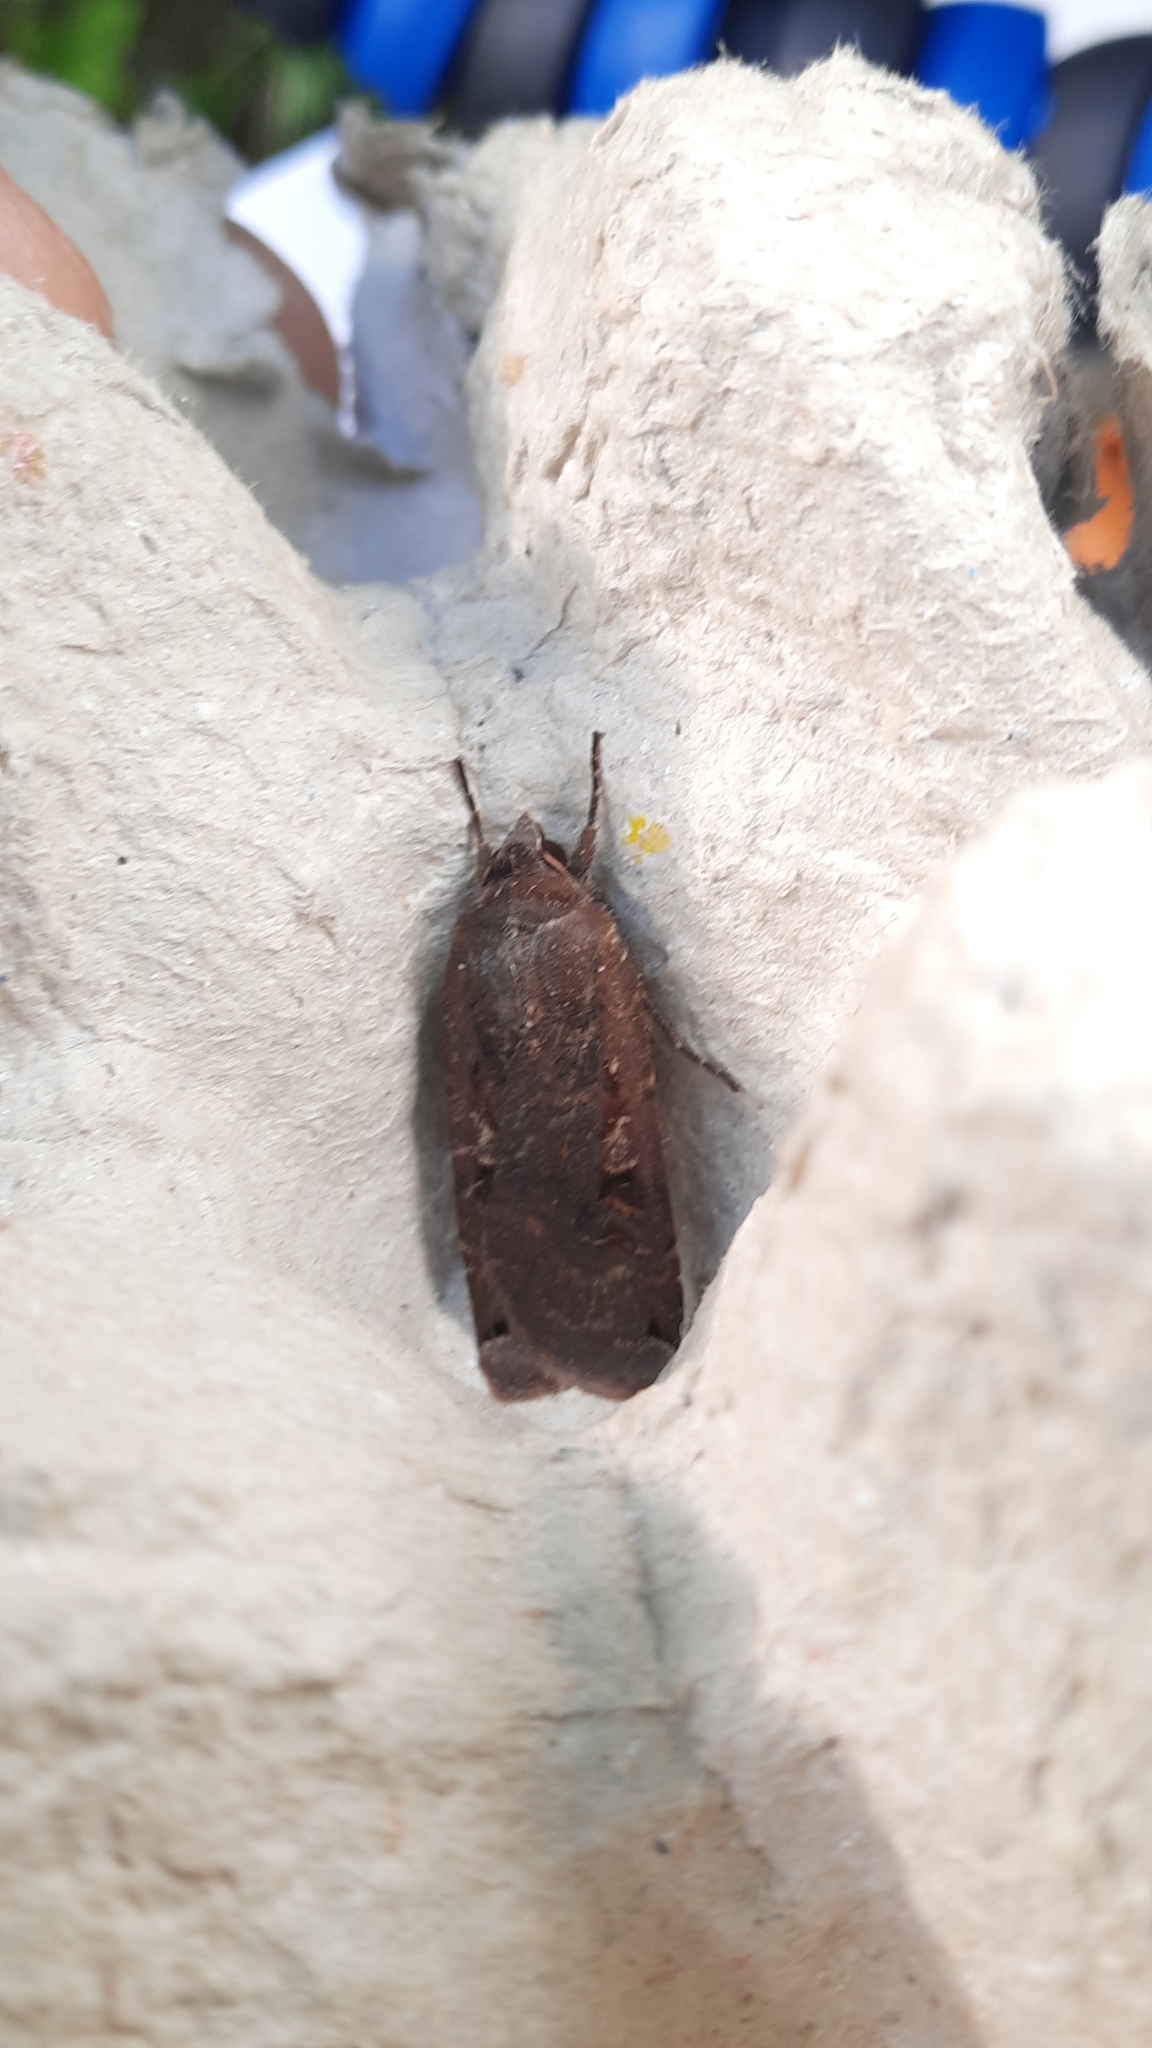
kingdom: Animalia
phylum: Arthropoda
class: Insecta
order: Lepidoptera
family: Noctuidae
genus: Noctua
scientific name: Noctua pronuba
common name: Large yellow underwing
